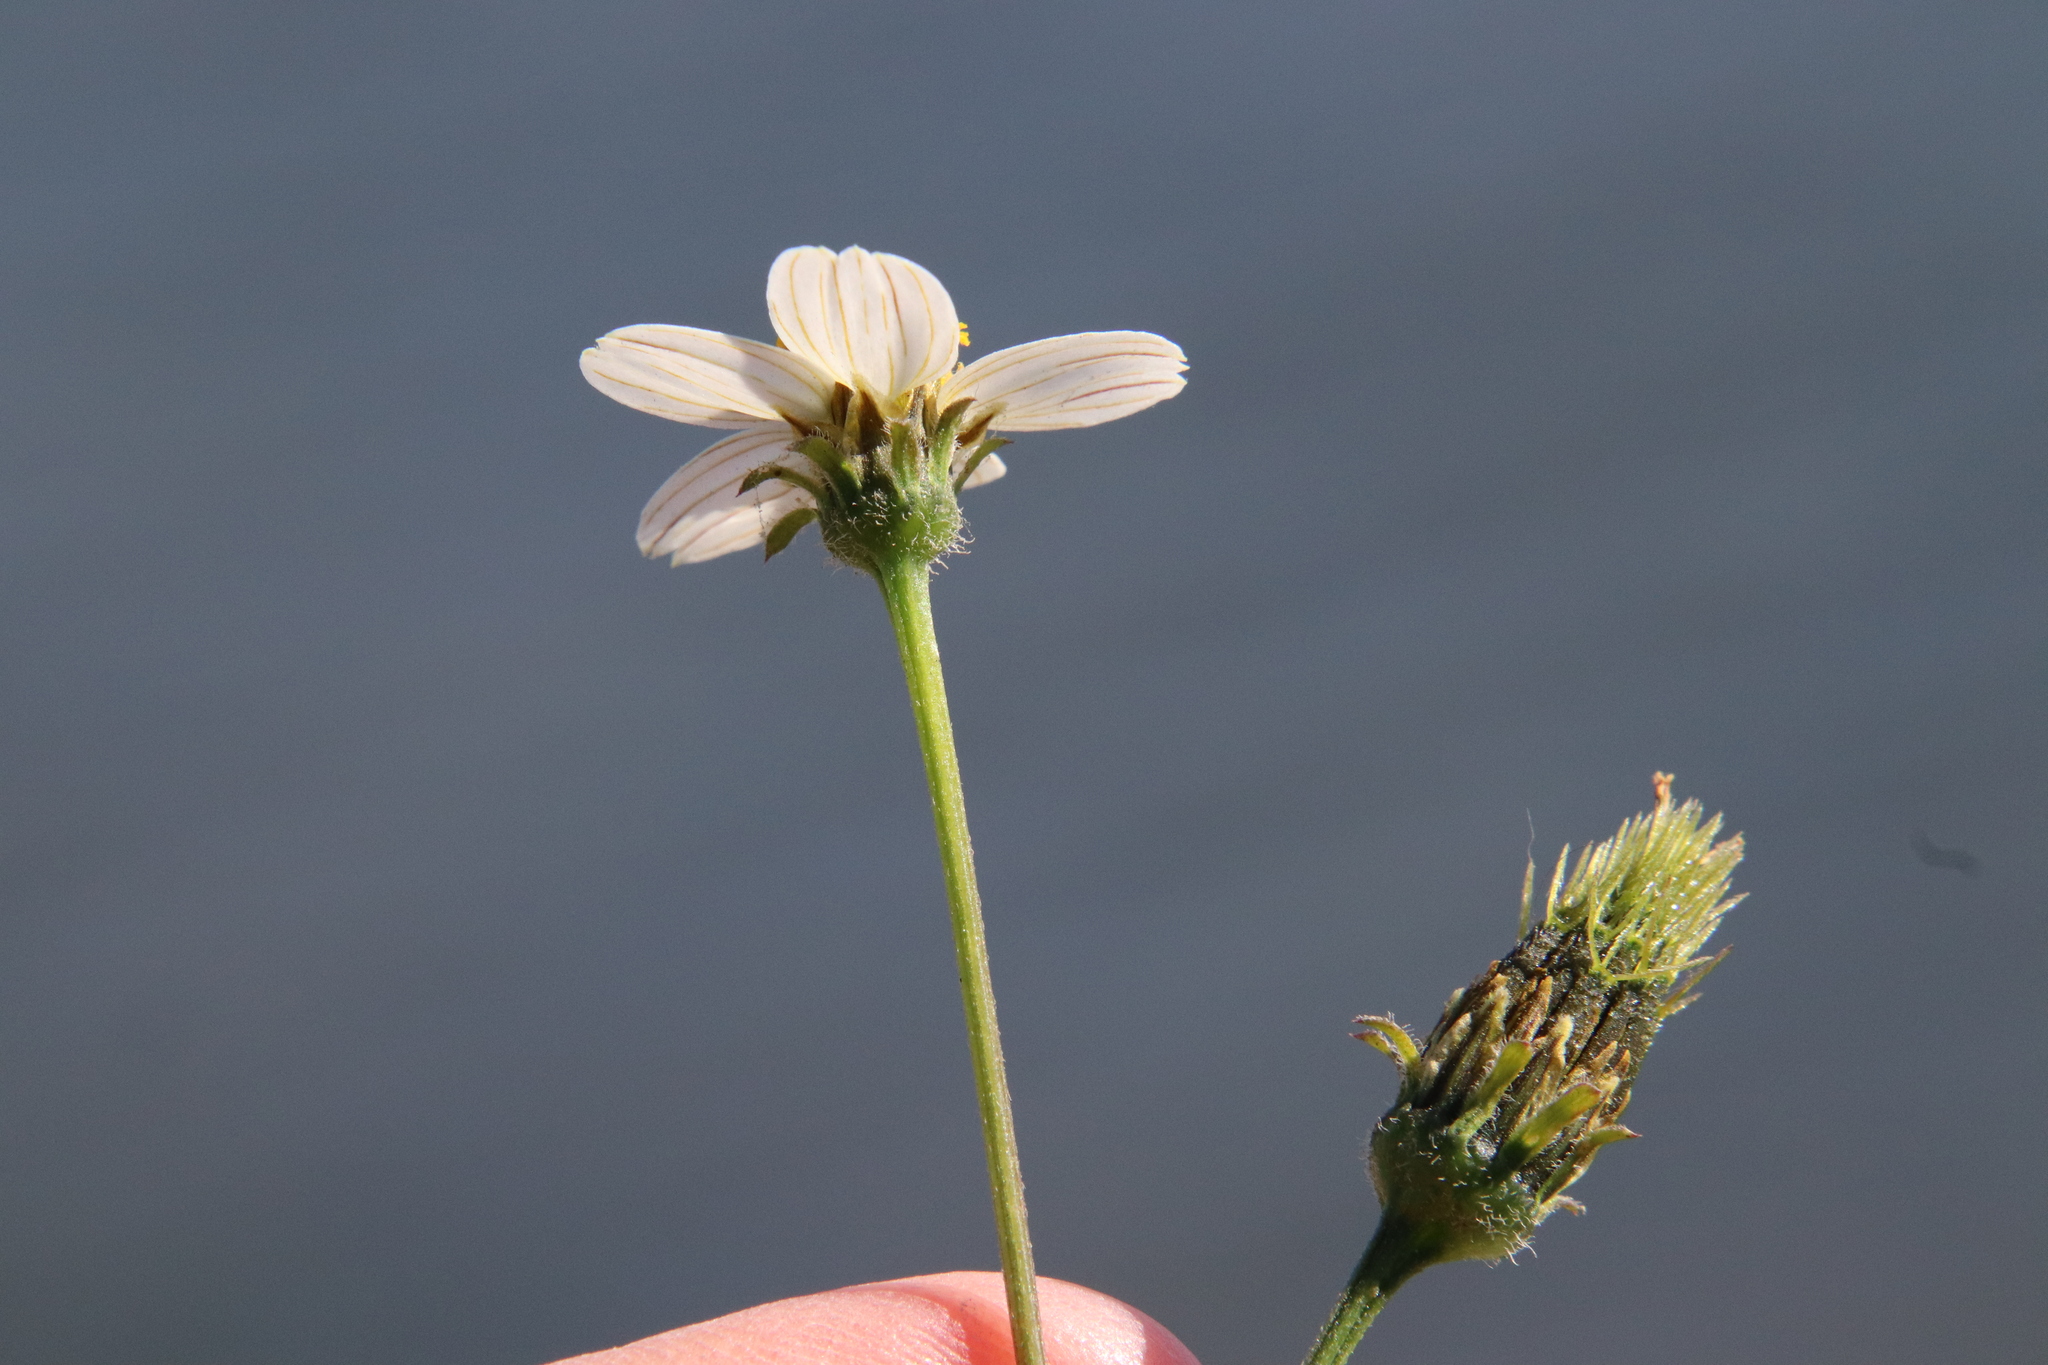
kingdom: Plantae
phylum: Tracheophyta
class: Magnoliopsida
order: Asterales
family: Asteraceae
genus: Bidens
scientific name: Bidens pilosa
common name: Black-jack
